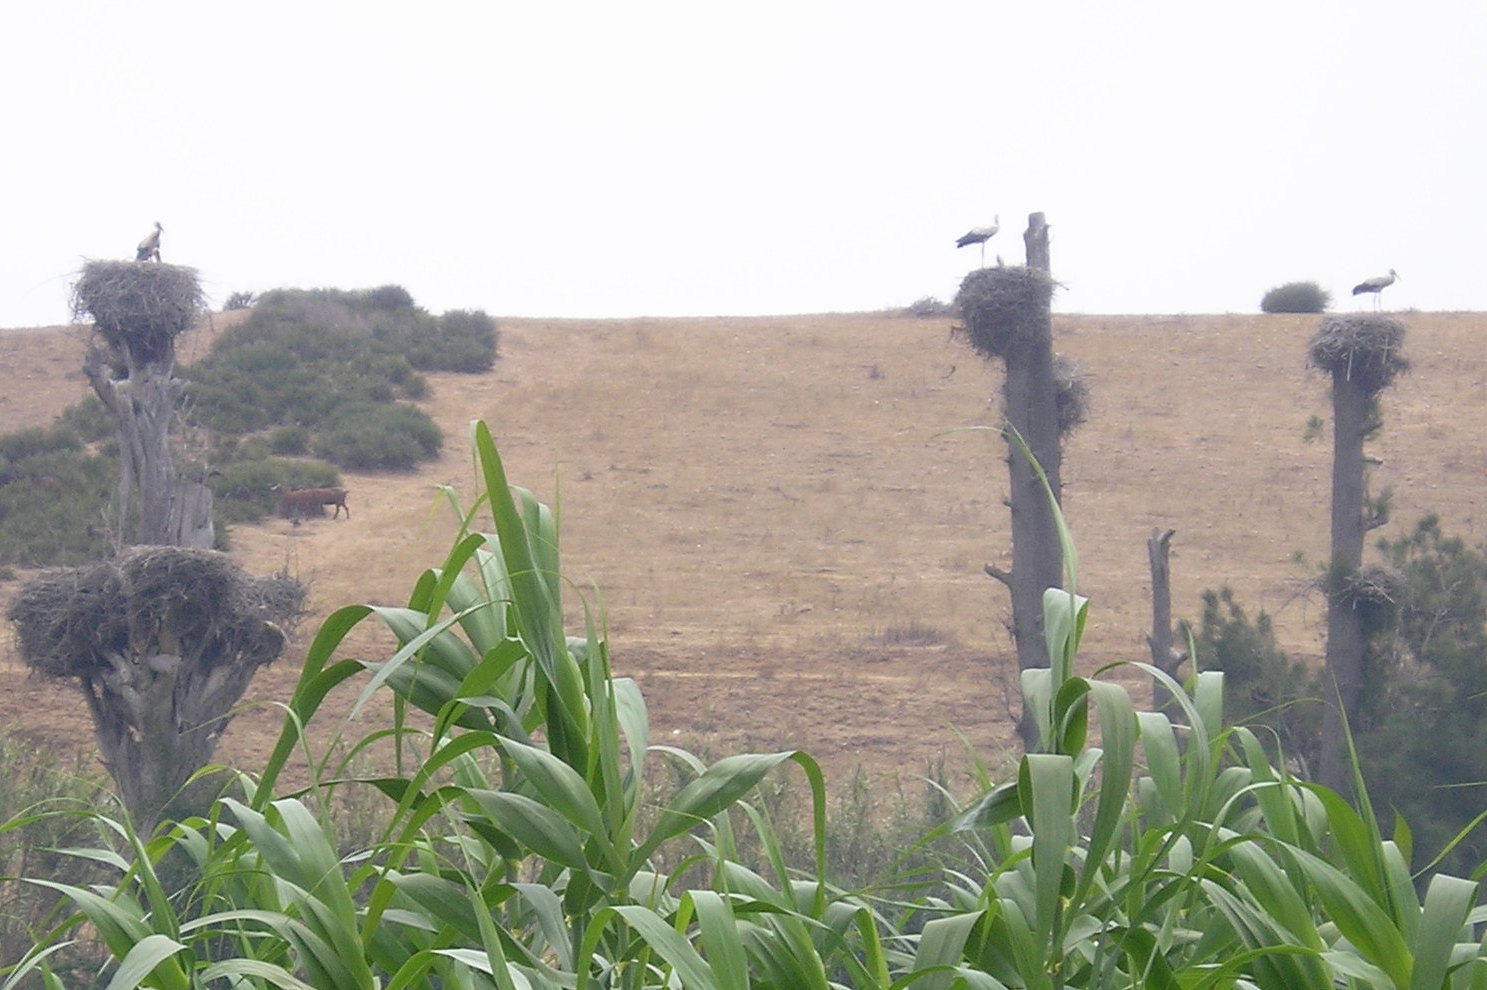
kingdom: Animalia
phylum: Chordata
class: Aves
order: Ciconiiformes
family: Ciconiidae
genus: Ciconia
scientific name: Ciconia ciconia
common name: White stork
